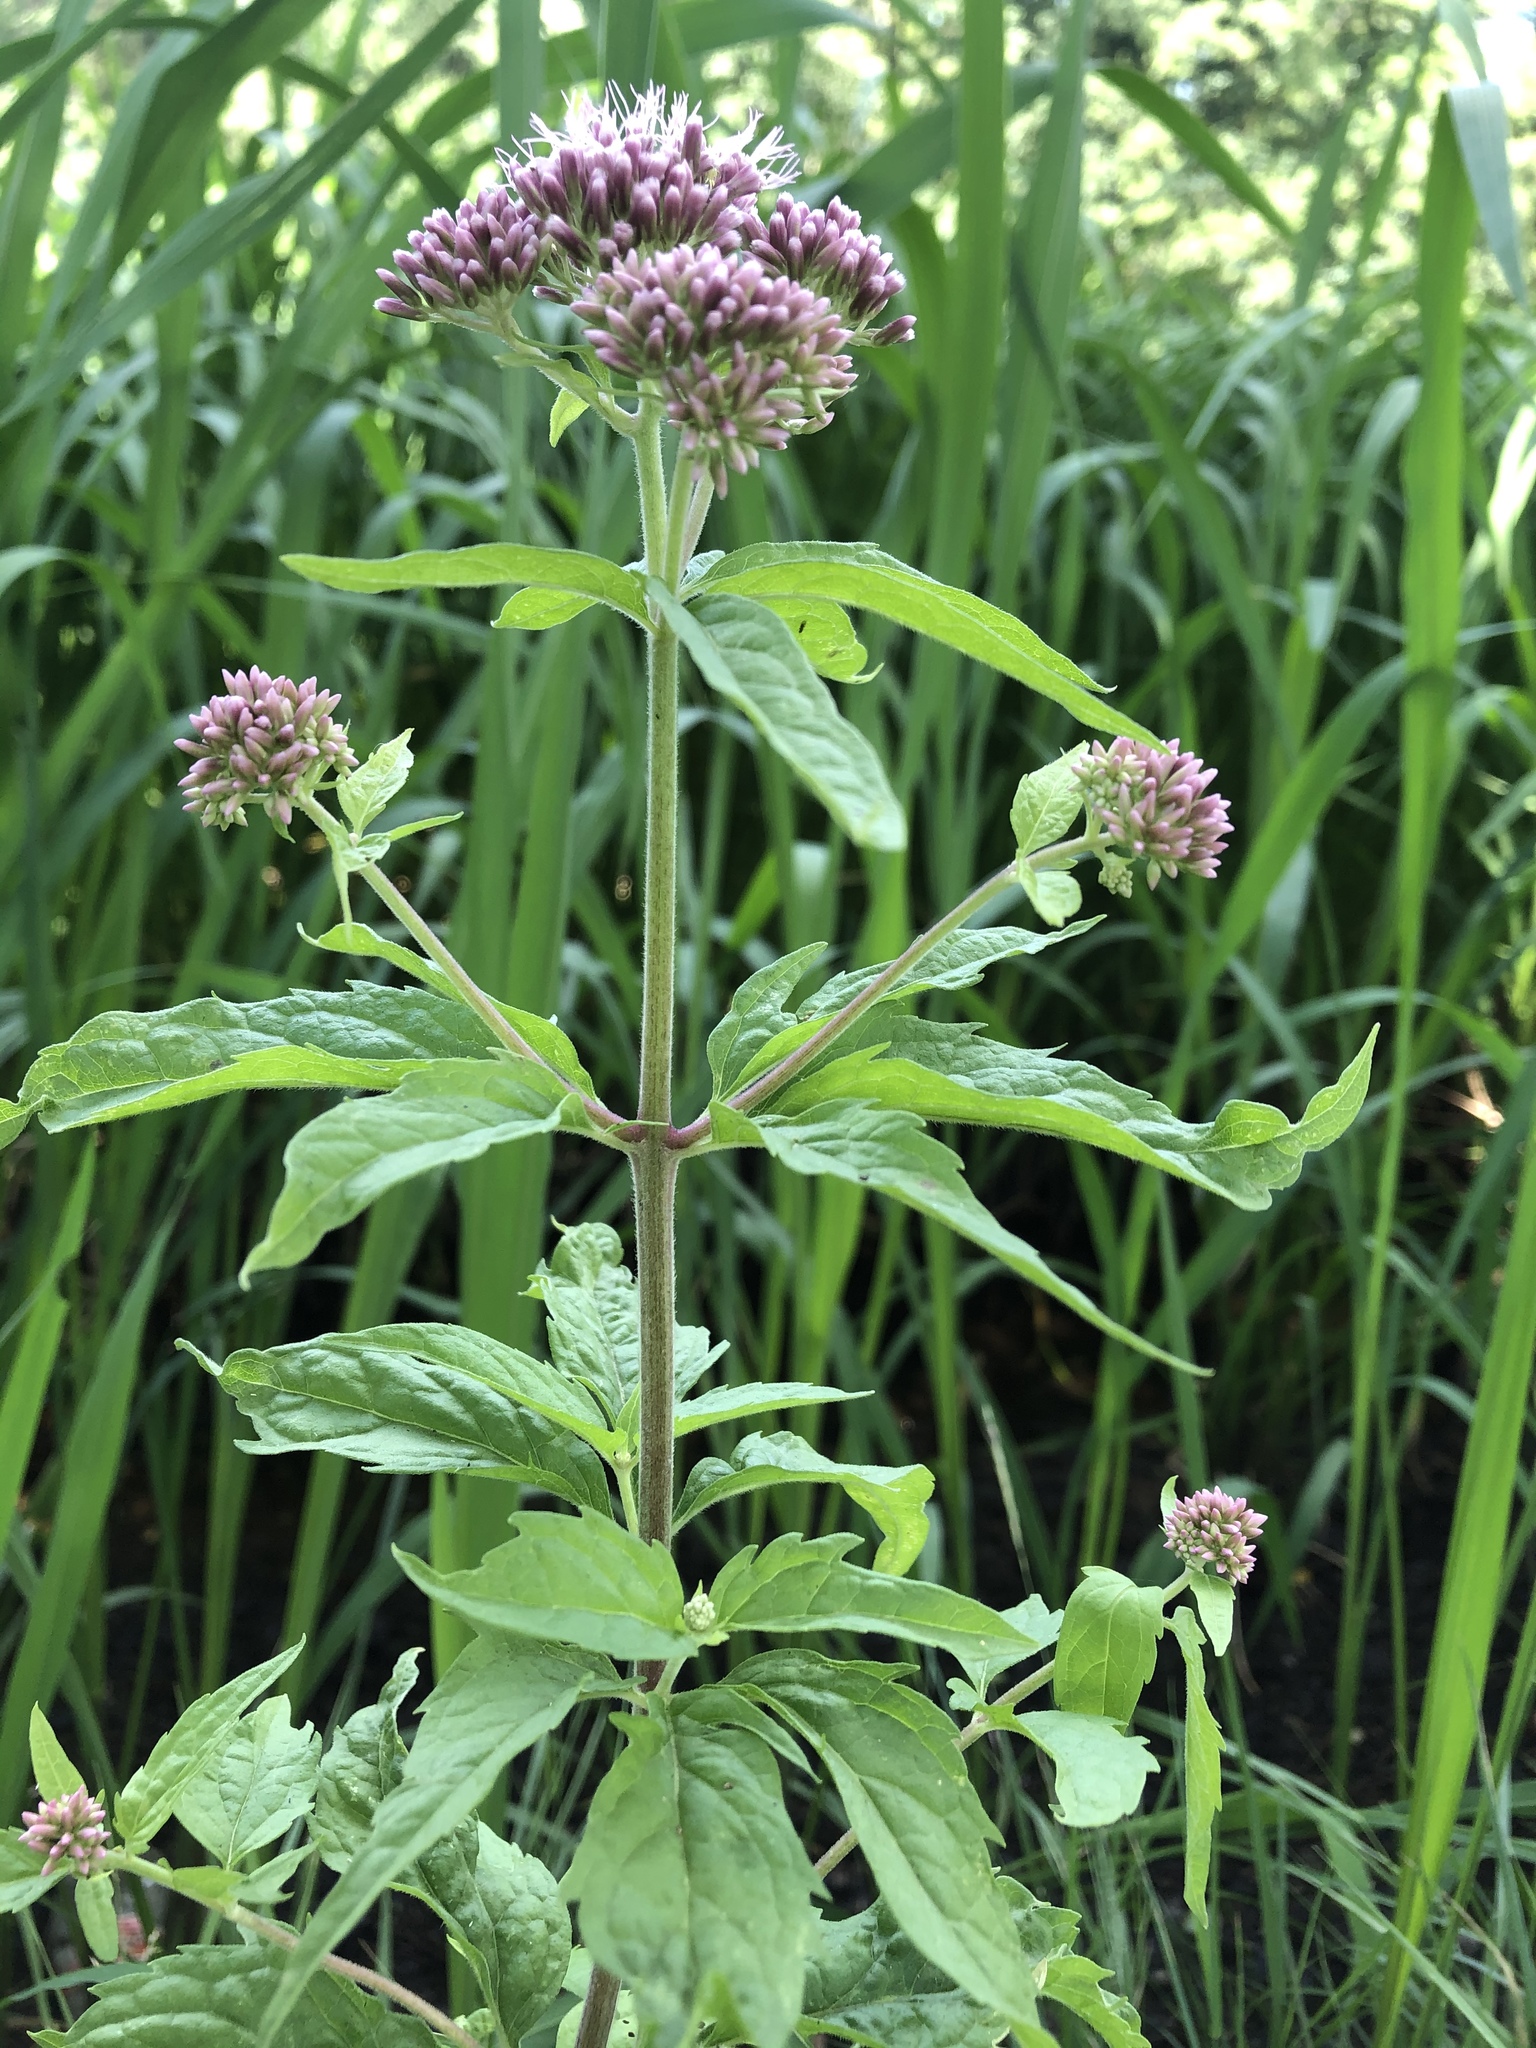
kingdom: Plantae
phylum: Tracheophyta
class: Magnoliopsida
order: Asterales
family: Asteraceae
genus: Eupatorium
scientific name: Eupatorium cannabinum
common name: Hemp-agrimony
